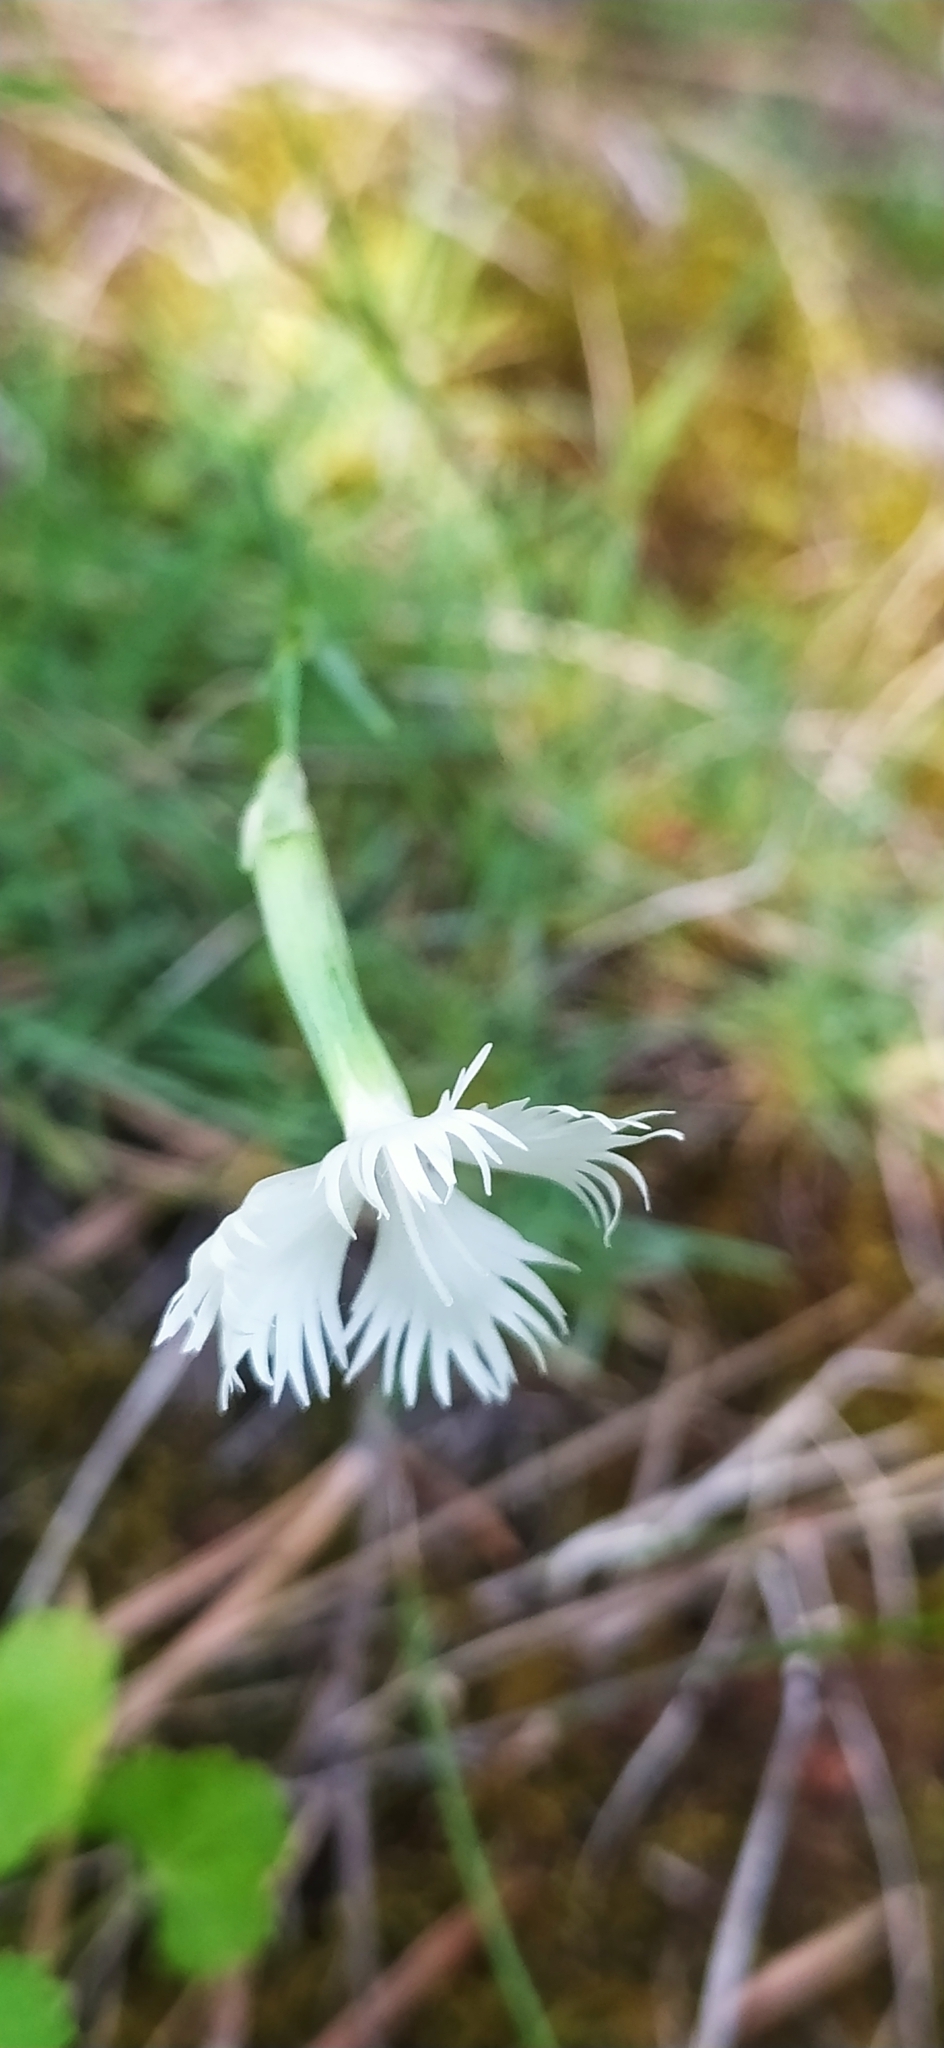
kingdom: Plantae
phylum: Tracheophyta
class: Magnoliopsida
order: Caryophyllales
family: Caryophyllaceae
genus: Dianthus
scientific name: Dianthus acicularis
